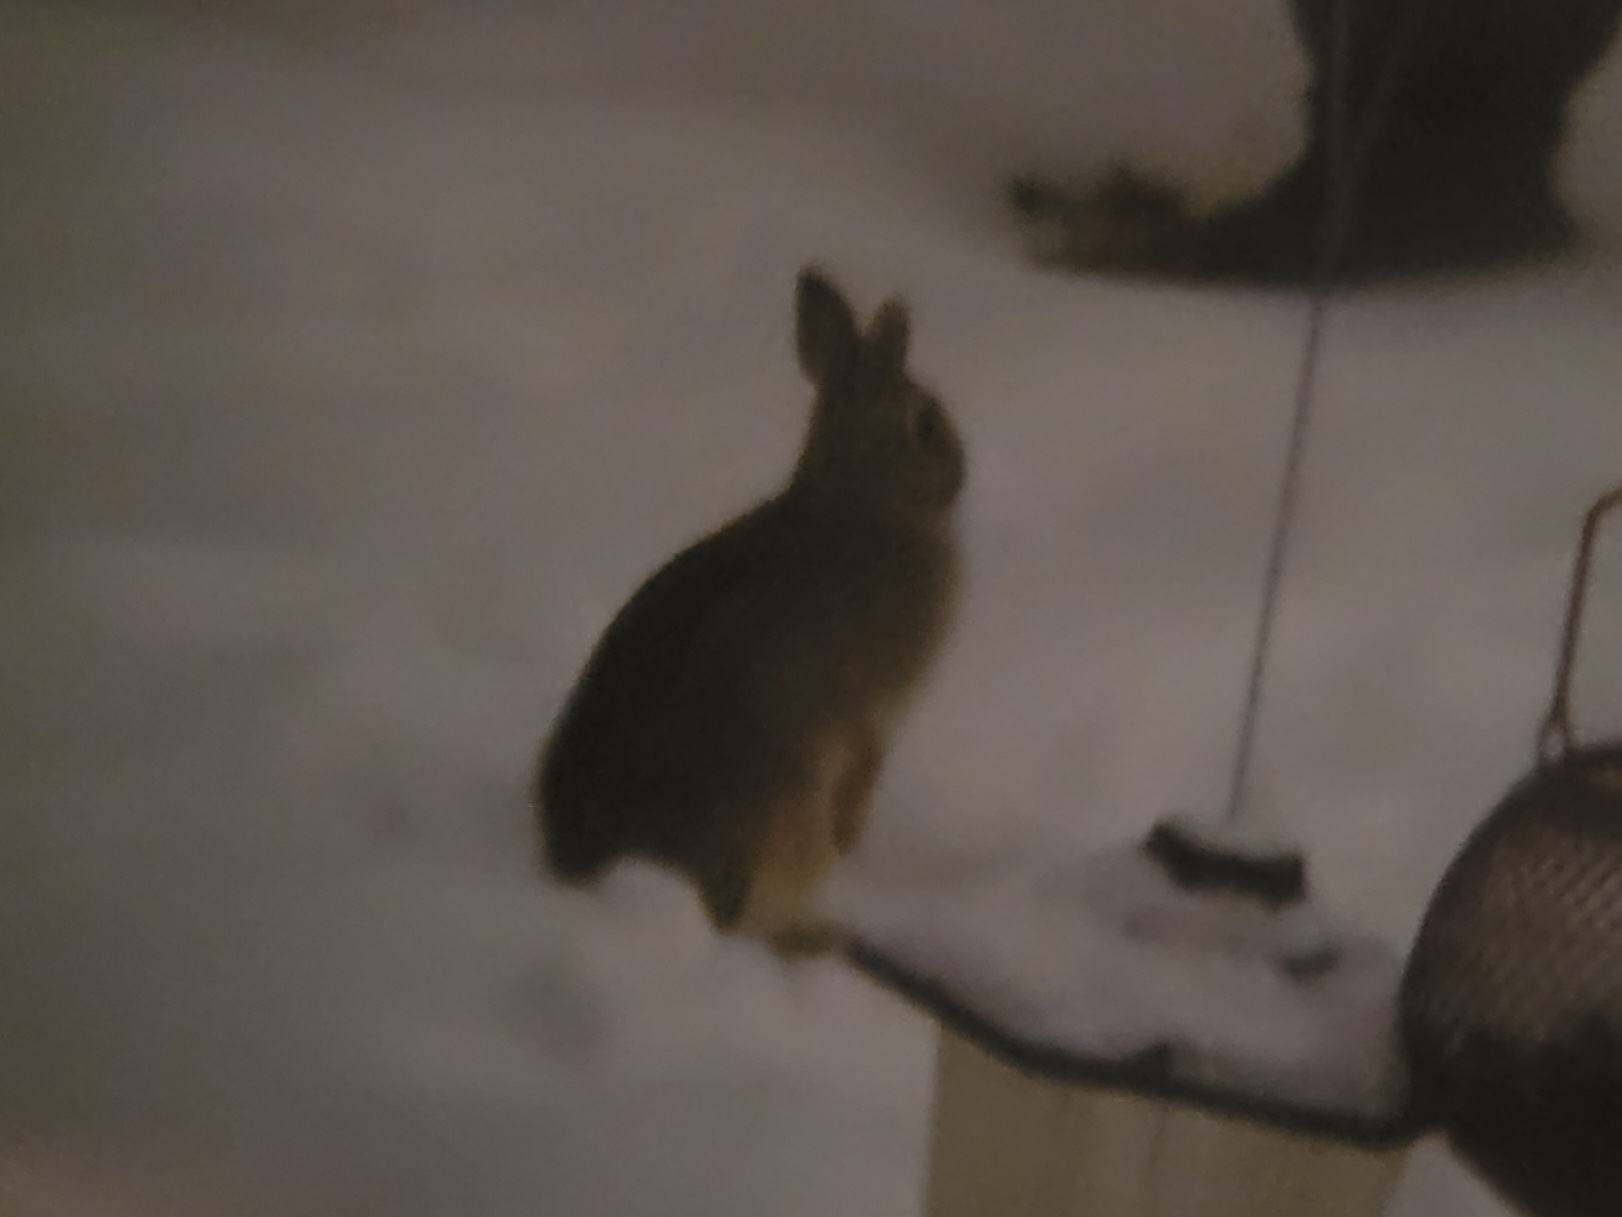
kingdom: Animalia
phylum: Chordata
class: Mammalia
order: Lagomorpha
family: Leporidae
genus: Sylvilagus
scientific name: Sylvilagus floridanus
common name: Eastern cottontail
